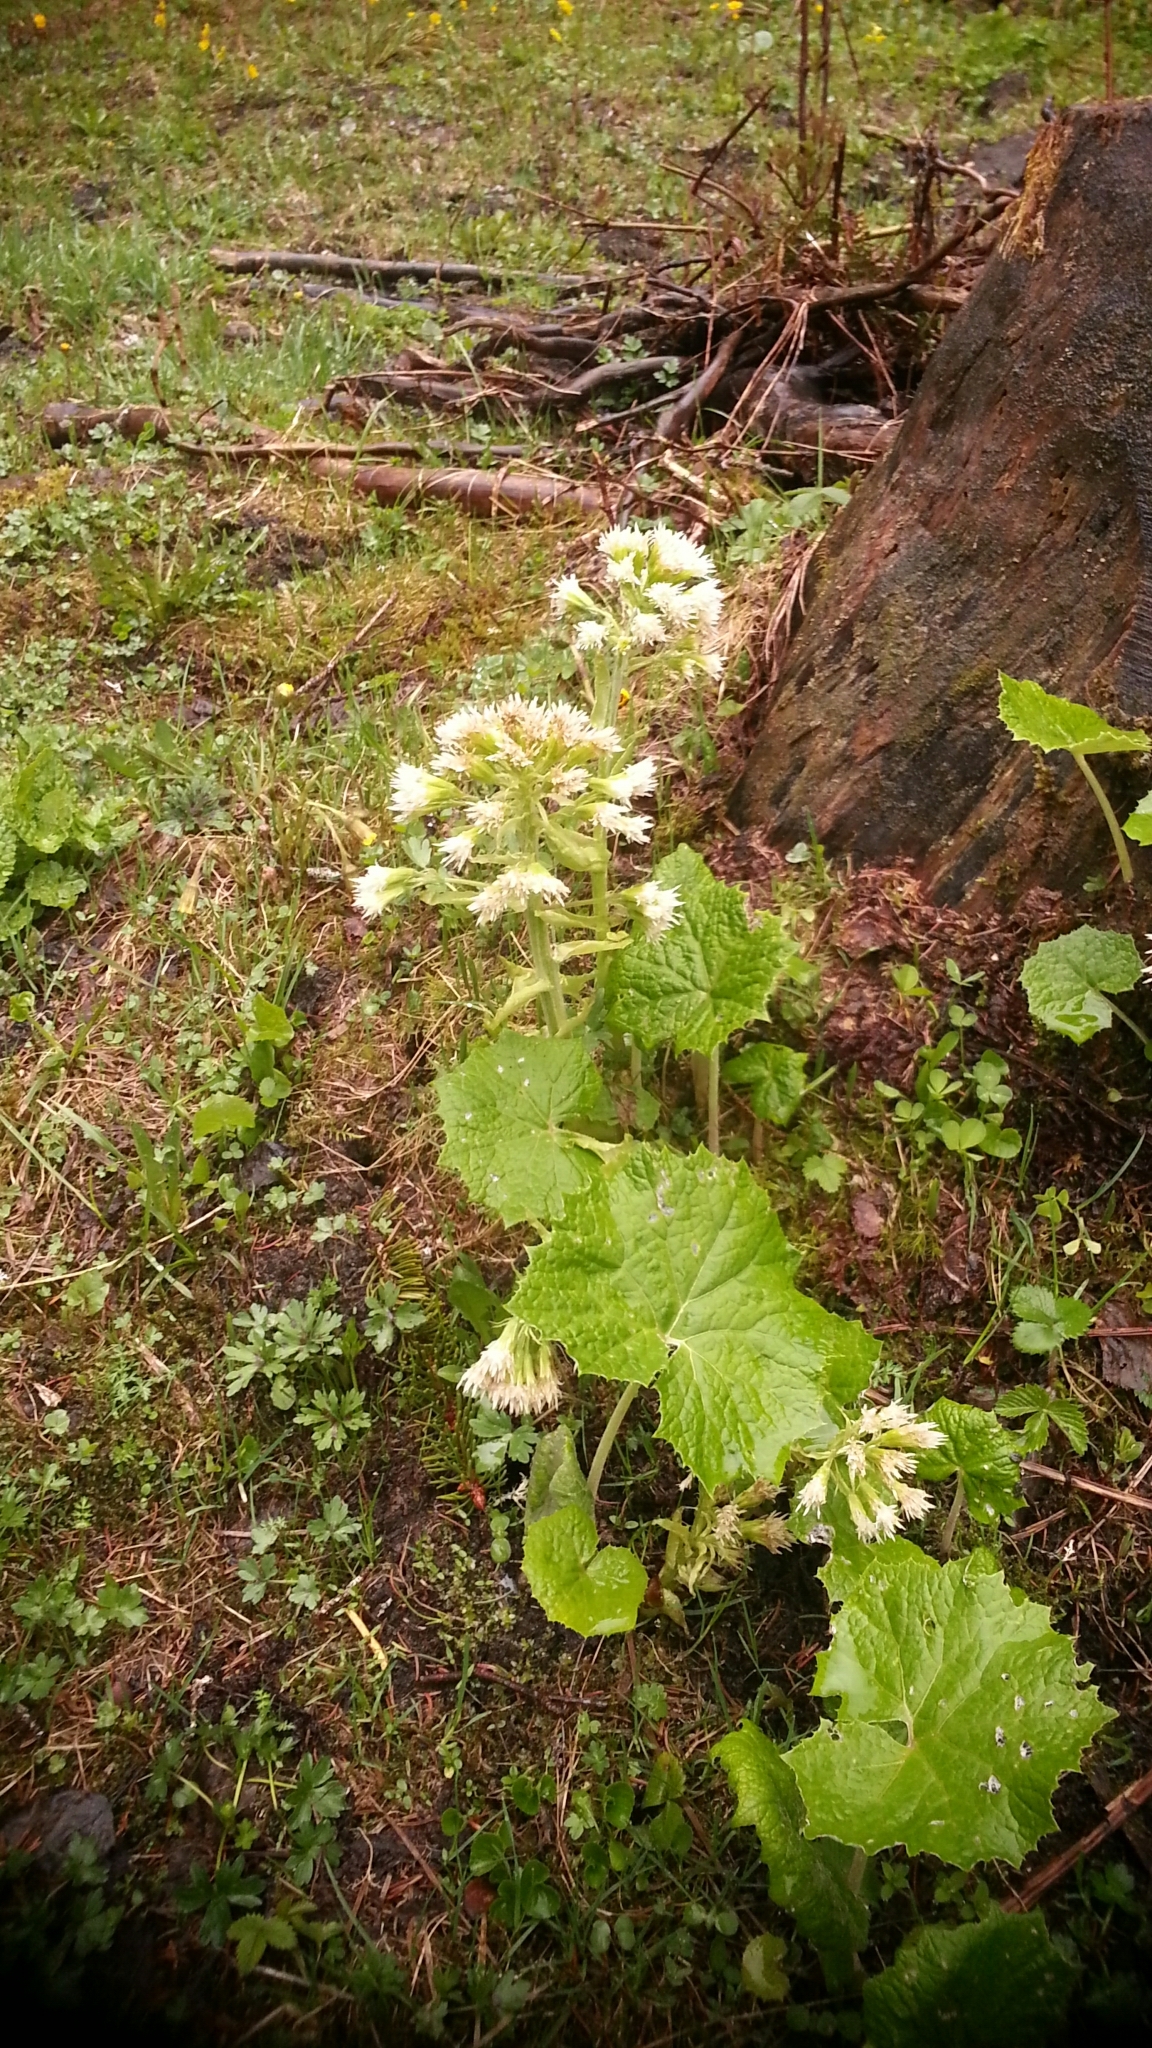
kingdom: Plantae
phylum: Tracheophyta
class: Magnoliopsida
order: Asterales
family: Asteraceae
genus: Petasites
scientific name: Petasites albus
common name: White butterbur
